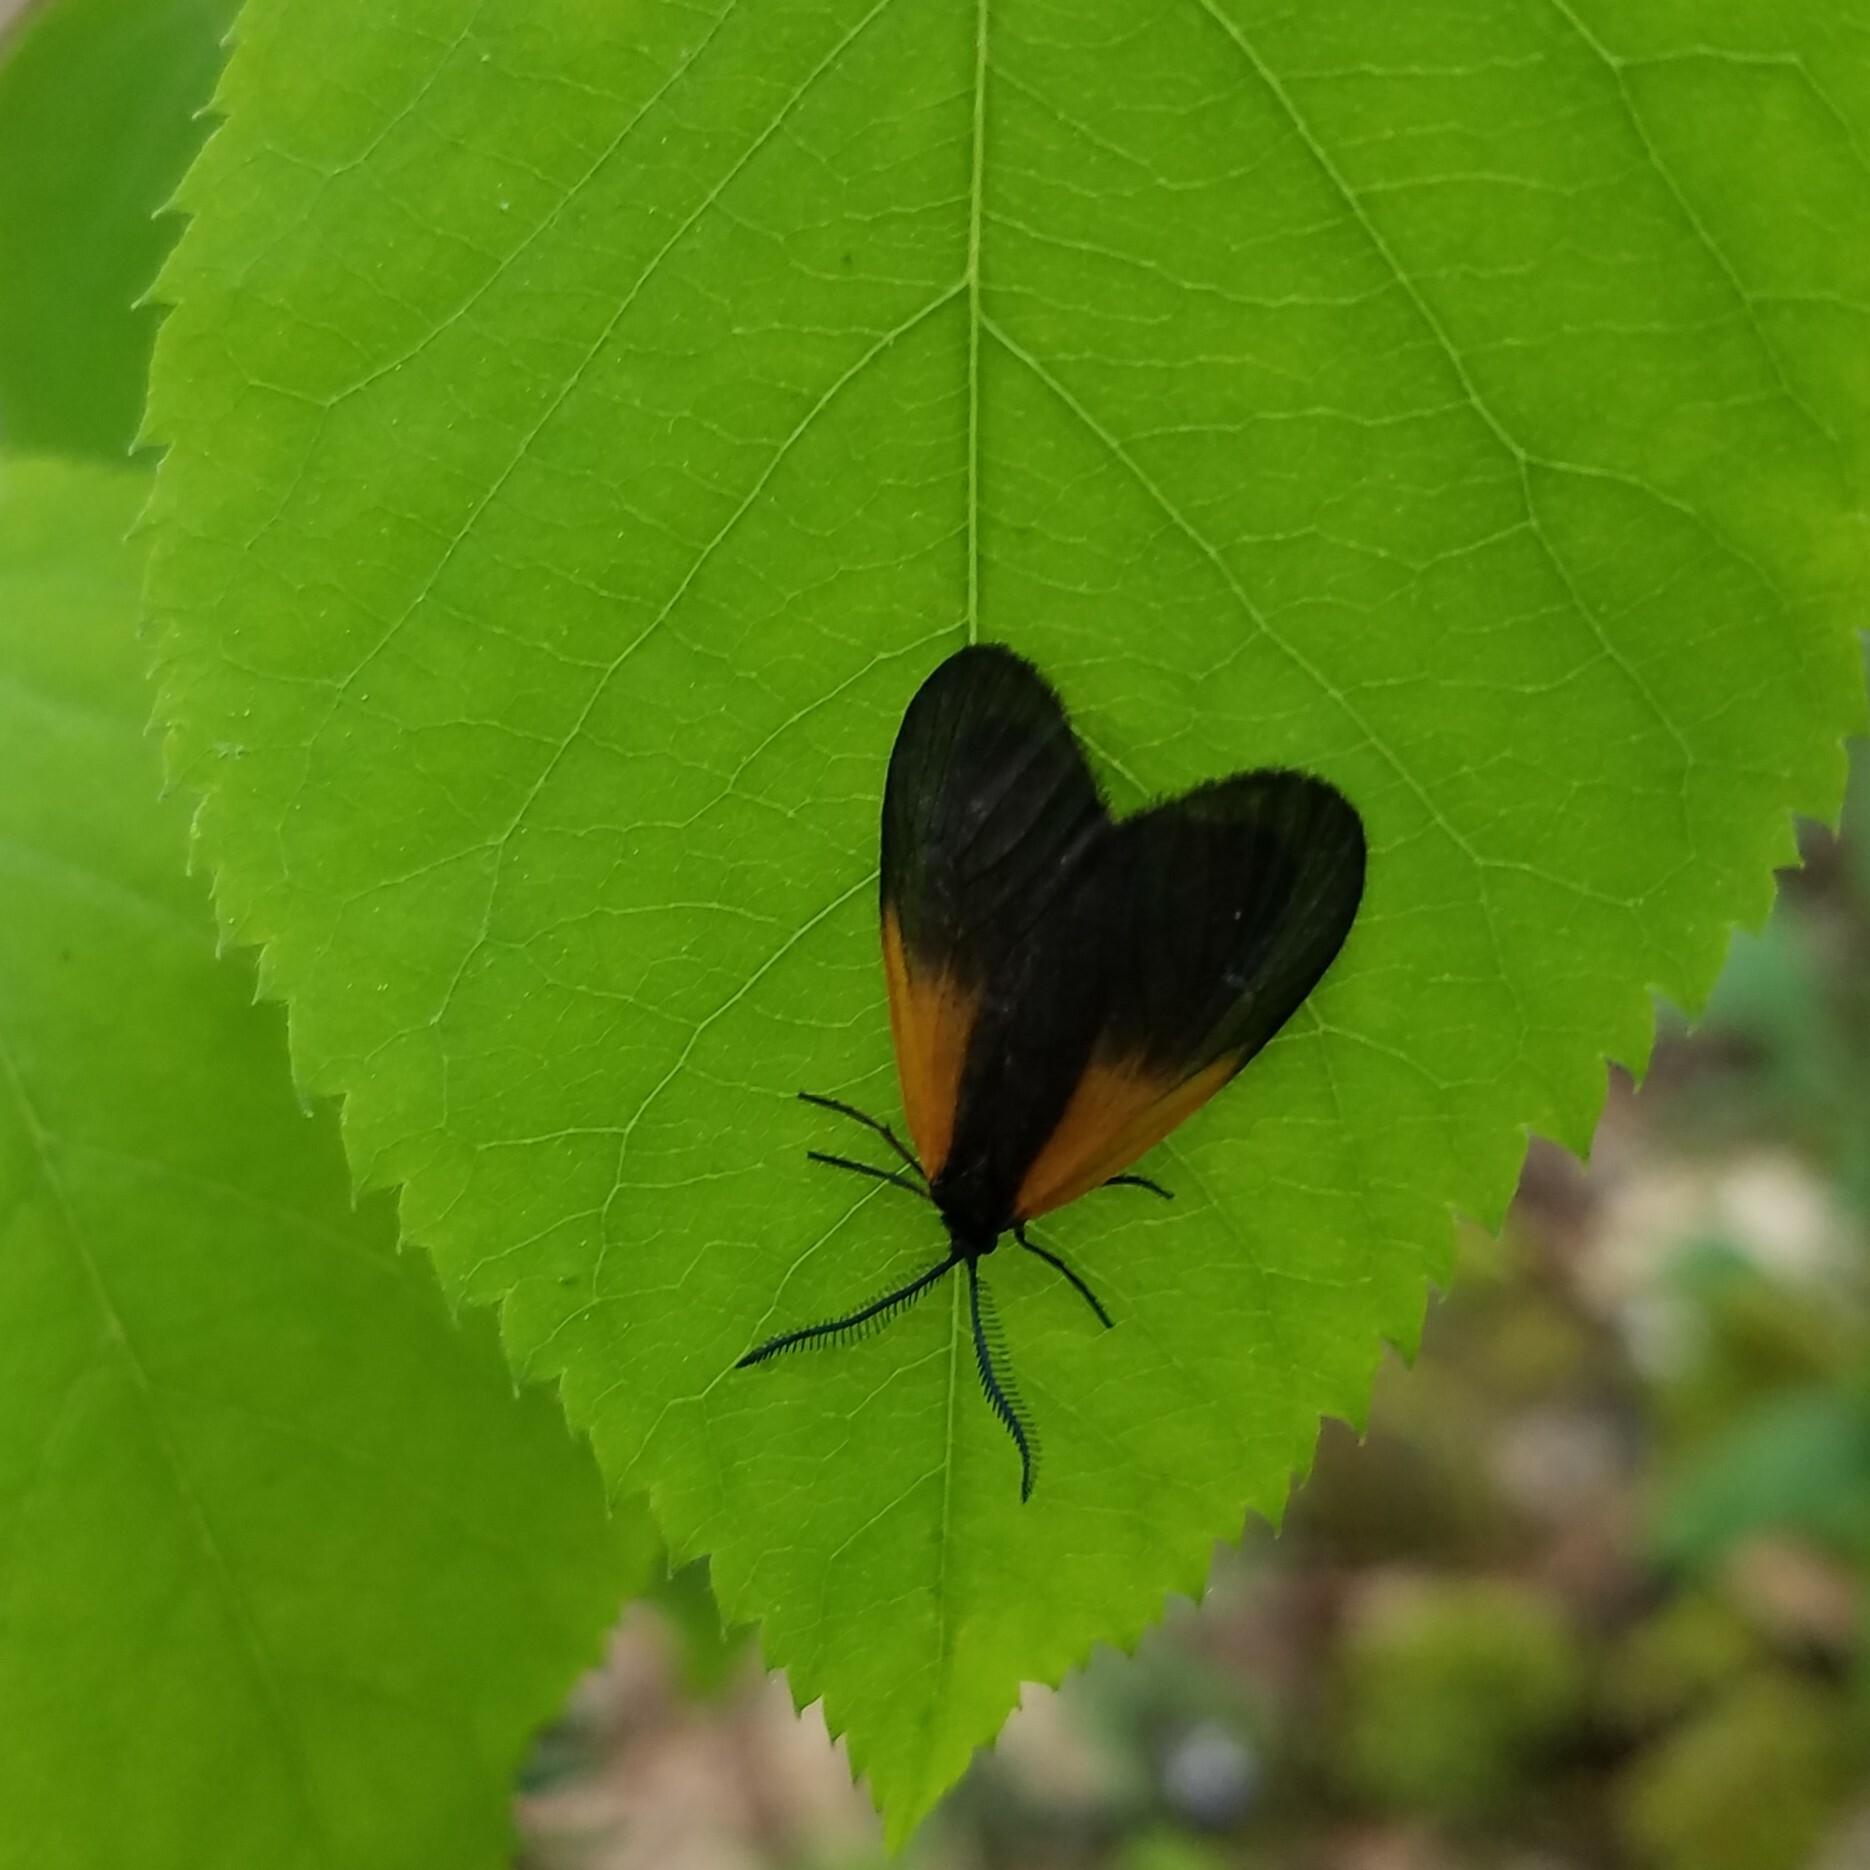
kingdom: Animalia
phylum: Arthropoda
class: Insecta
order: Lepidoptera
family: Zygaenidae
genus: Malthaca
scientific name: Malthaca dimidiata
